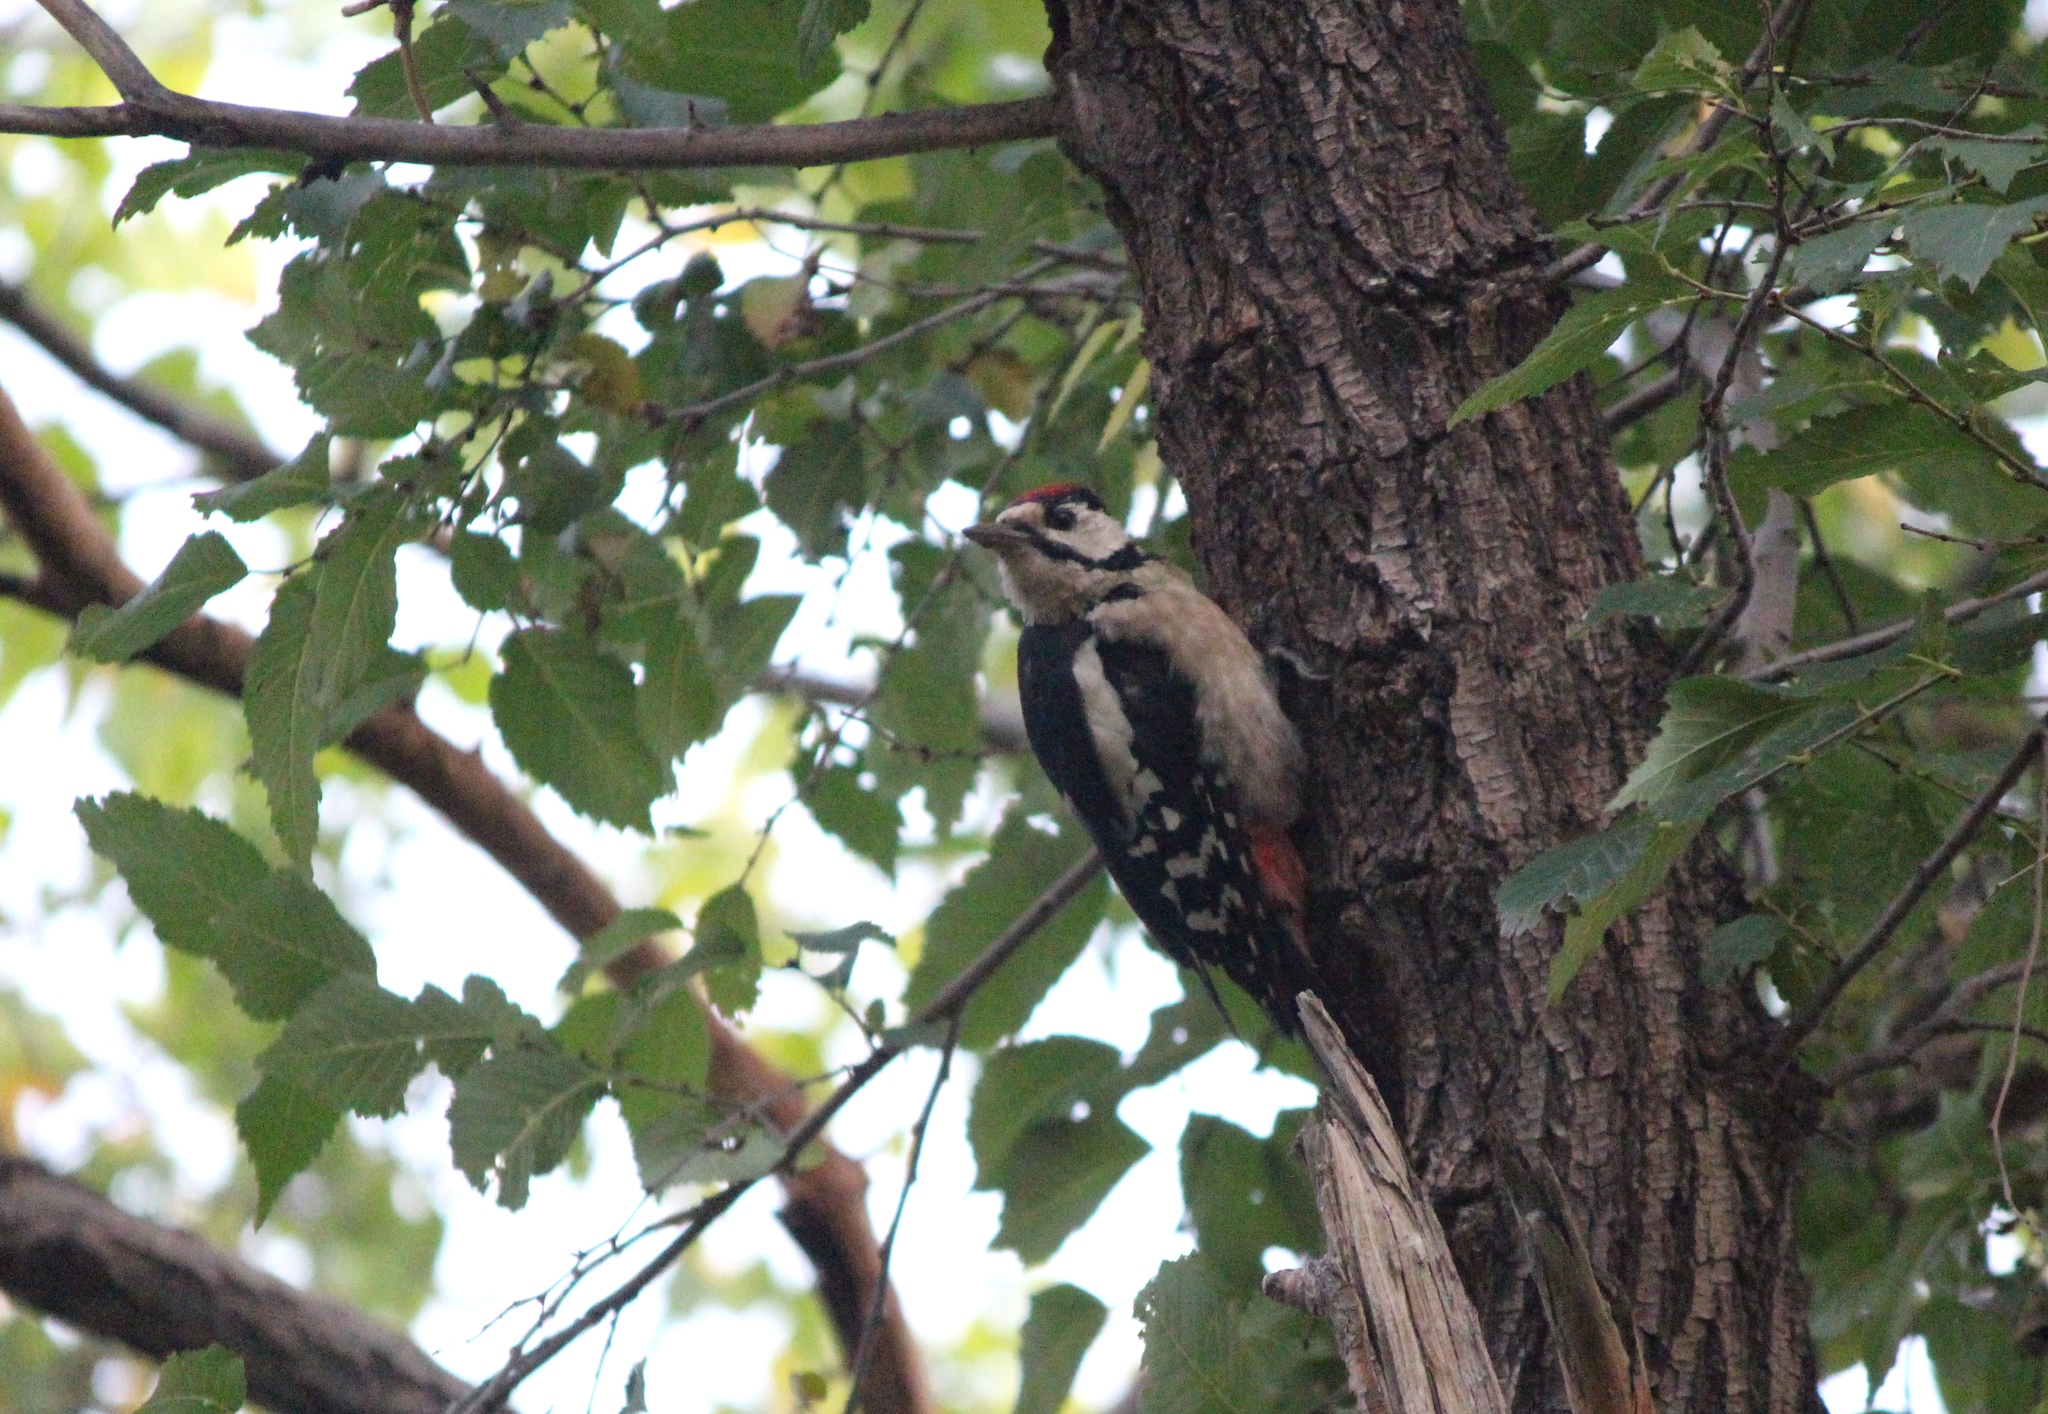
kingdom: Animalia
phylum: Chordata
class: Aves
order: Piciformes
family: Picidae
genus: Dendrocopos
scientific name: Dendrocopos major
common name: Great spotted woodpecker
